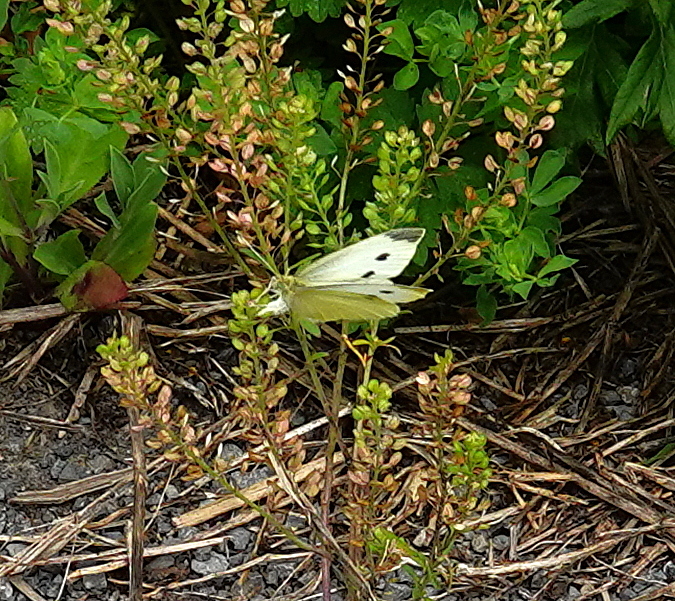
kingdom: Animalia
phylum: Arthropoda
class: Insecta
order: Lepidoptera
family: Pieridae
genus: Pieris
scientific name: Pieris rapae
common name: Small white
